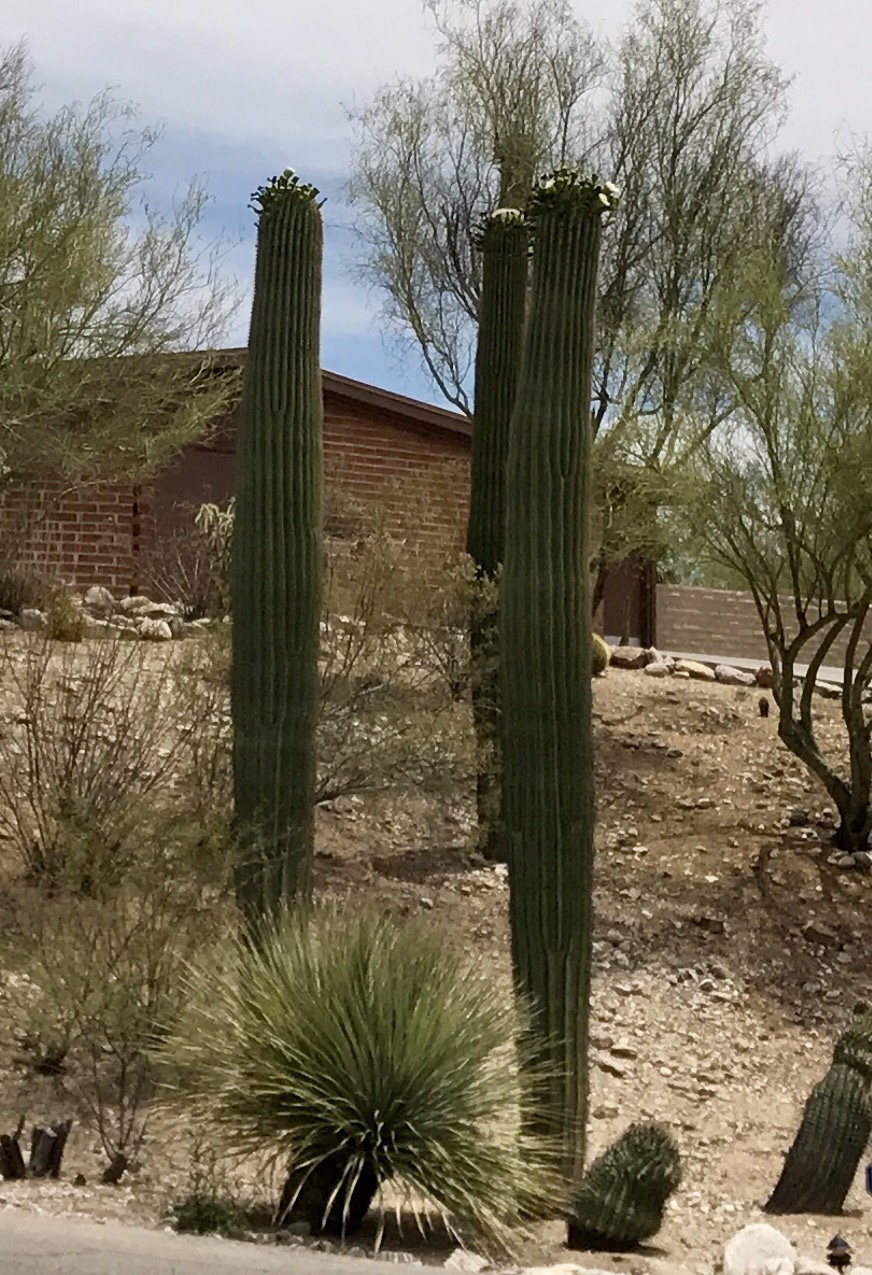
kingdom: Plantae
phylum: Tracheophyta
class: Magnoliopsida
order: Caryophyllales
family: Cactaceae
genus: Carnegiea
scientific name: Carnegiea gigantea
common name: Saguaro
